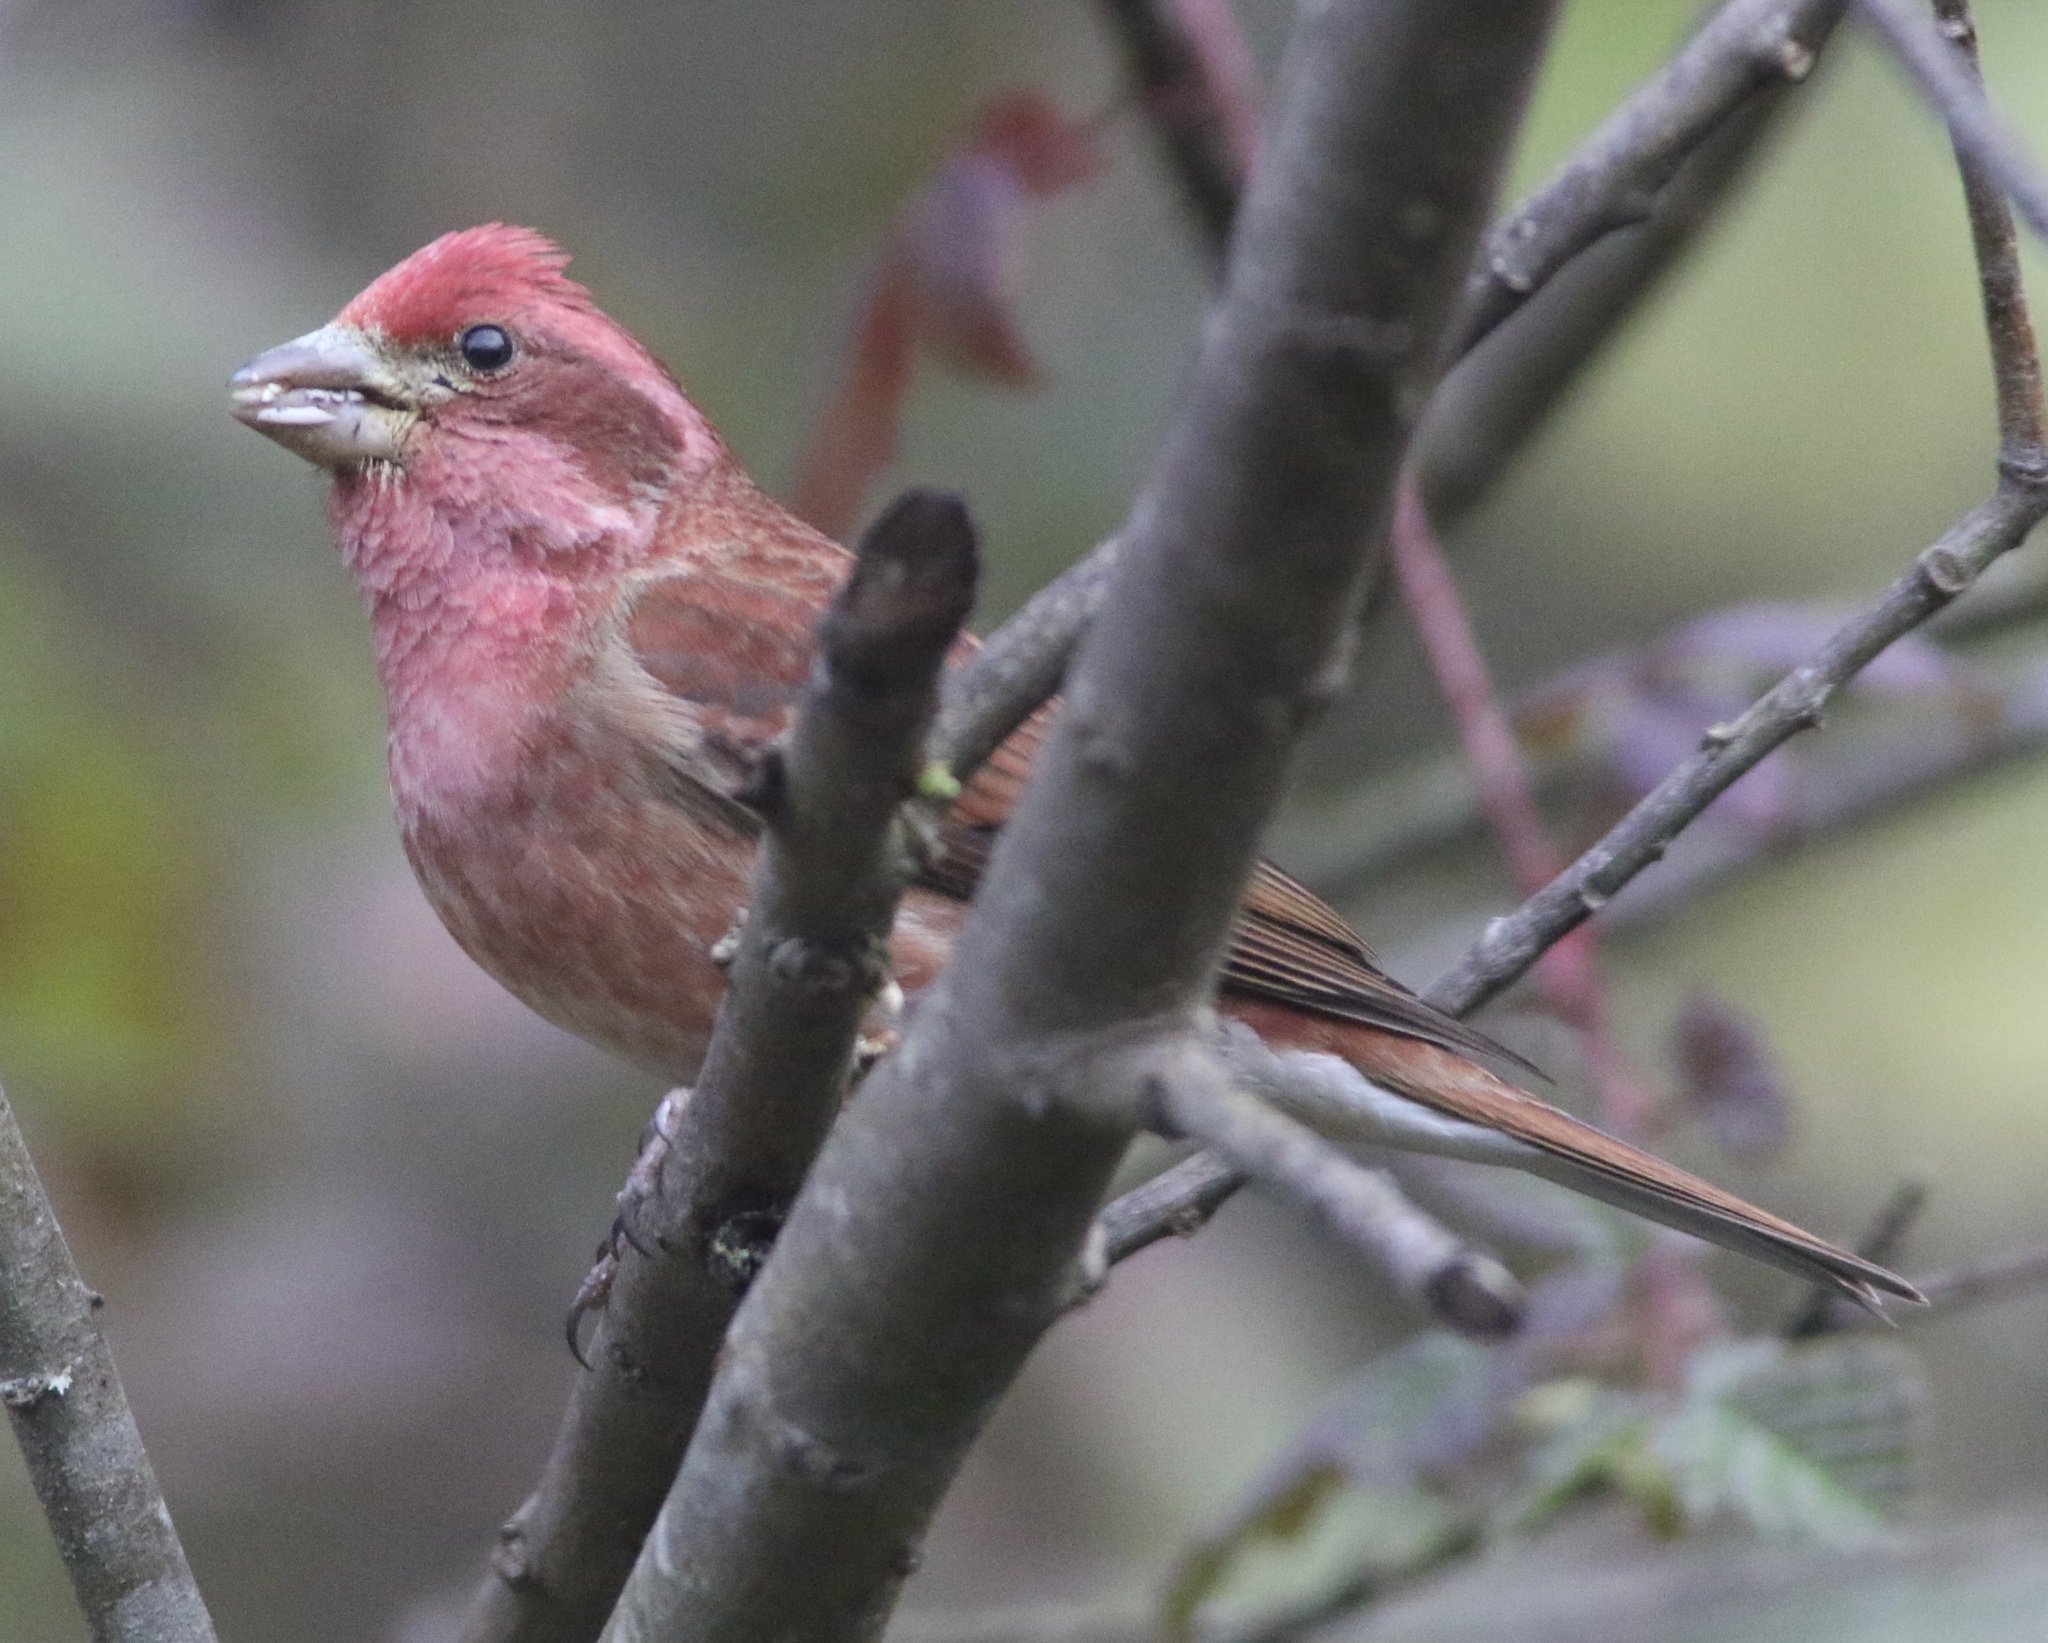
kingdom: Animalia
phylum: Chordata
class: Aves
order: Passeriformes
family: Fringillidae
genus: Haemorhous
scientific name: Haemorhous purpureus
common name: Purple finch
